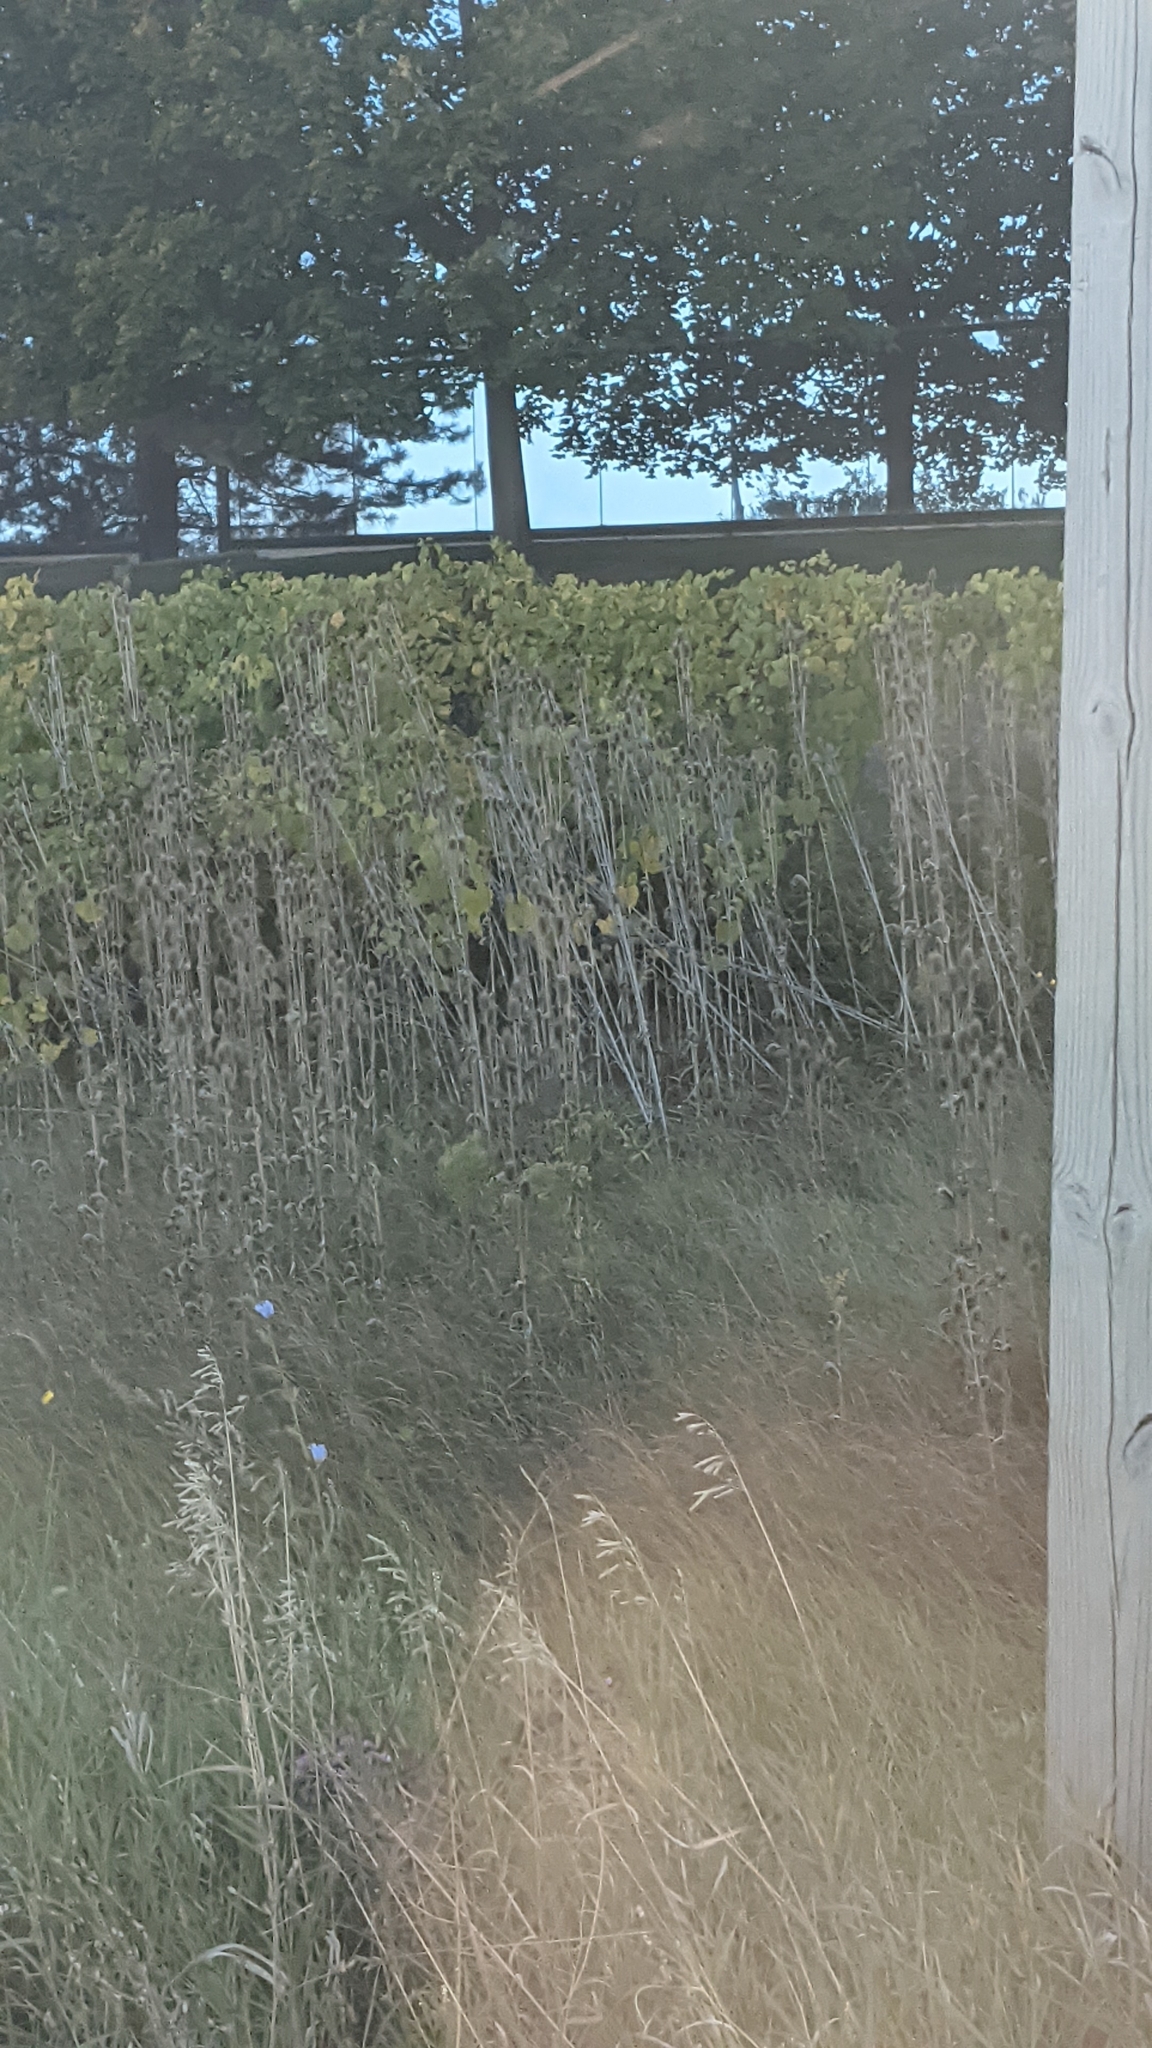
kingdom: Plantae
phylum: Tracheophyta
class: Magnoliopsida
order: Dipsacales
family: Caprifoliaceae
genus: Dipsacus
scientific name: Dipsacus laciniatus
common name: Cut-leaved teasel
